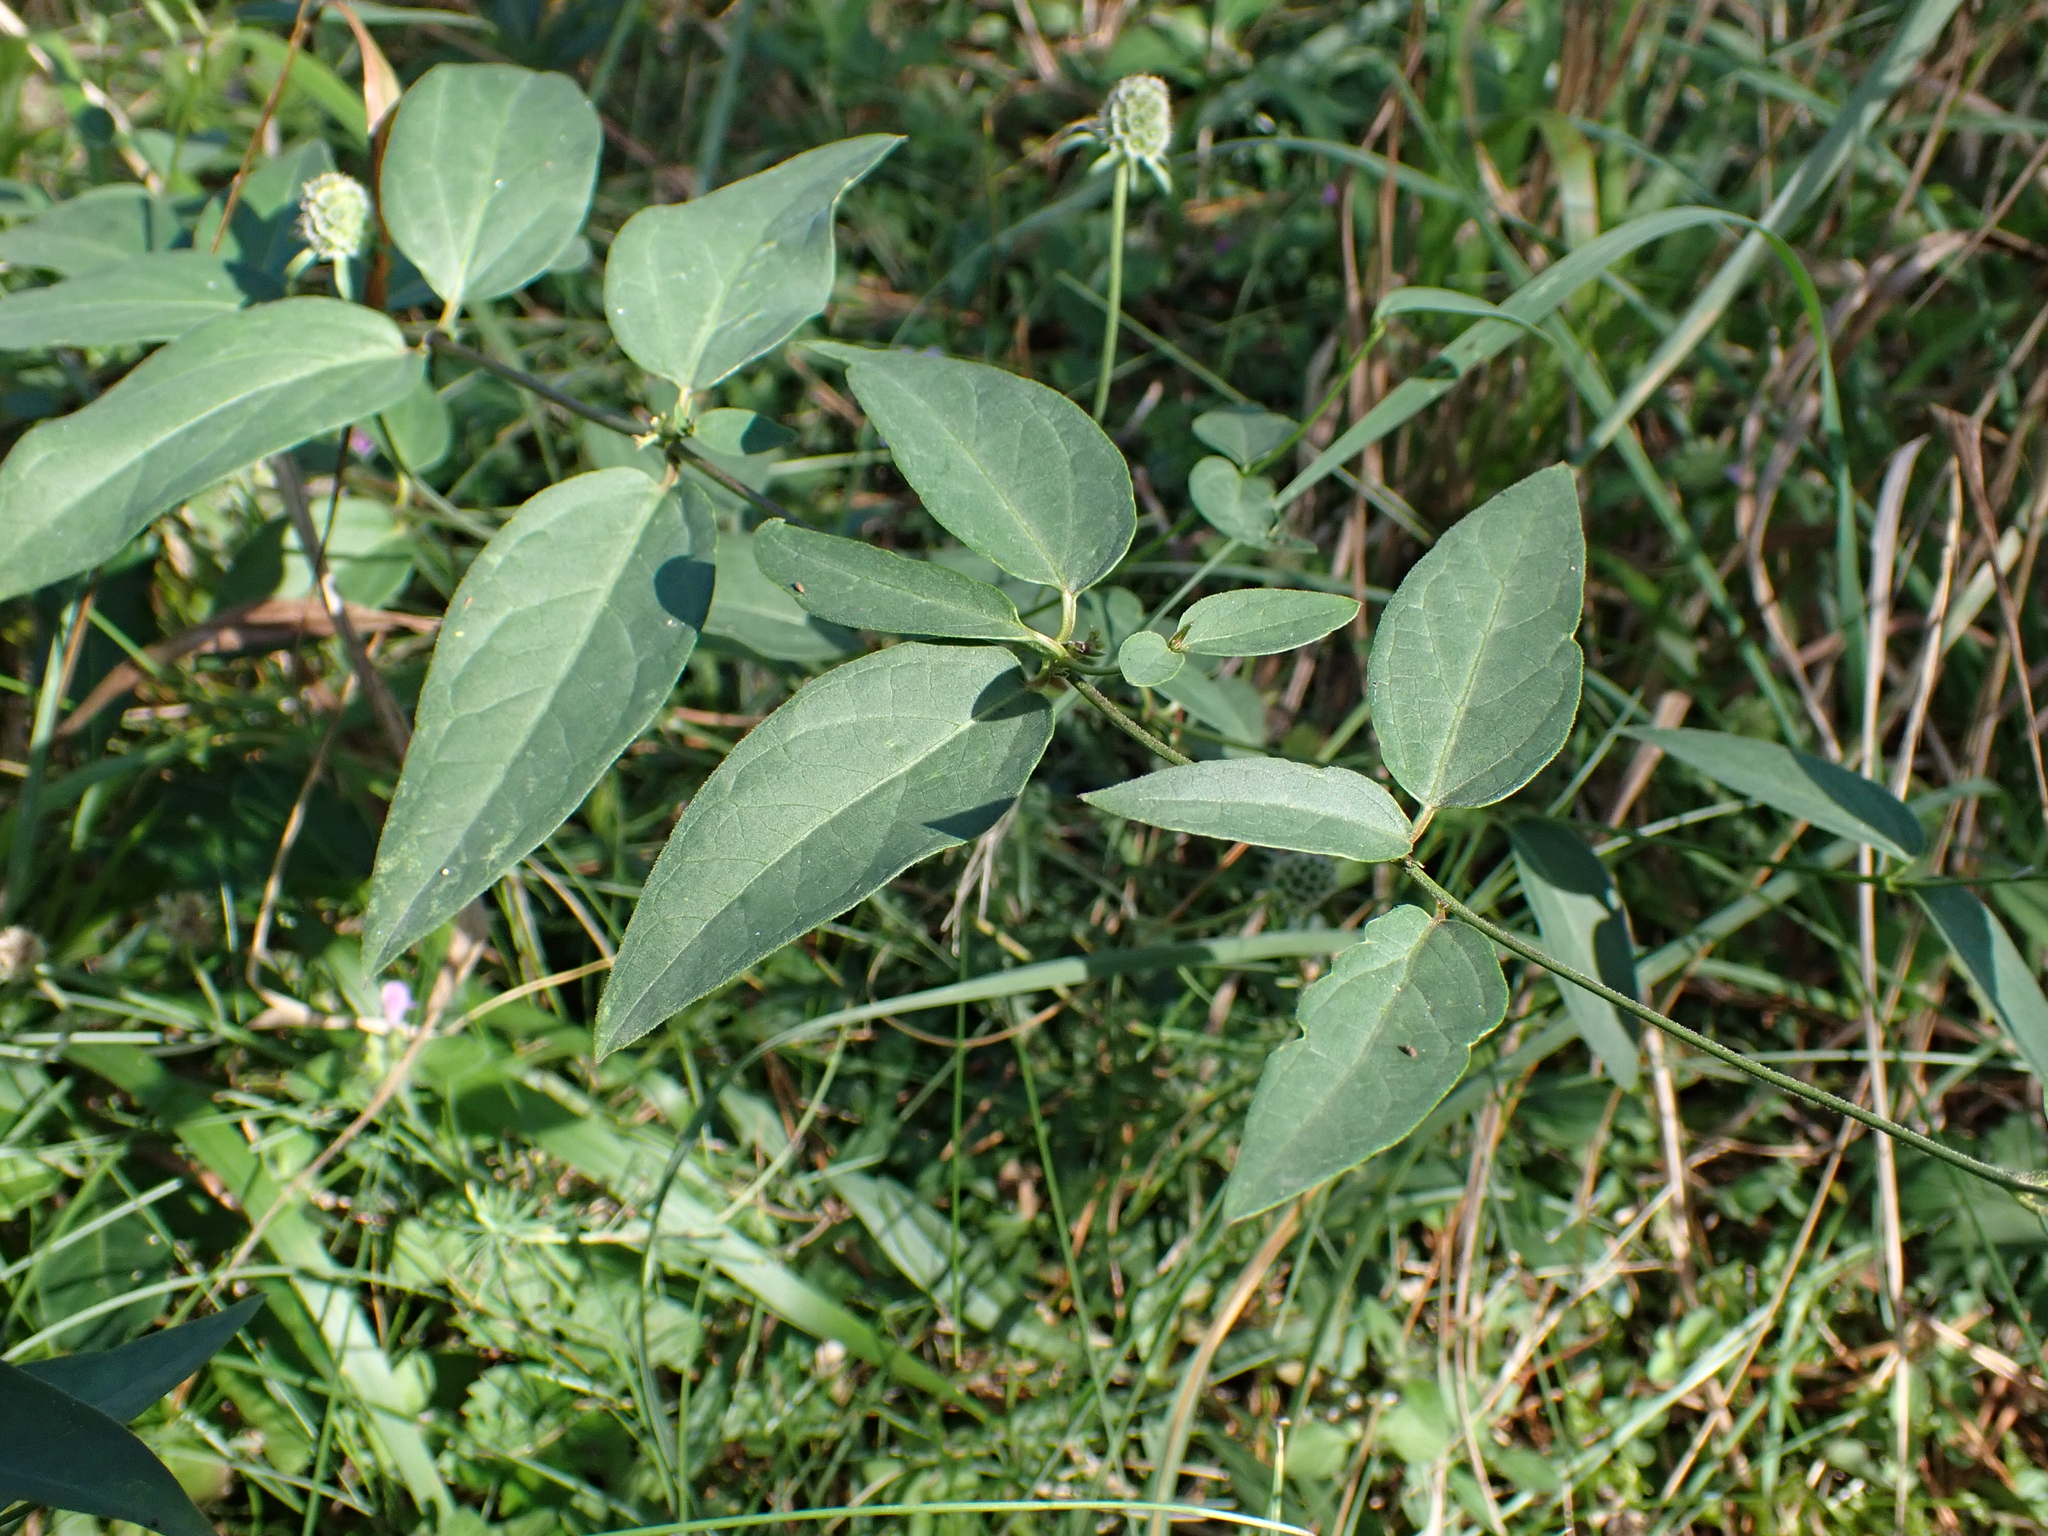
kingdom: Plantae
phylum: Tracheophyta
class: Magnoliopsida
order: Gentianales
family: Apocynaceae
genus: Vincetoxicum
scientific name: Vincetoxicum hirundinaria
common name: White swallowwort
